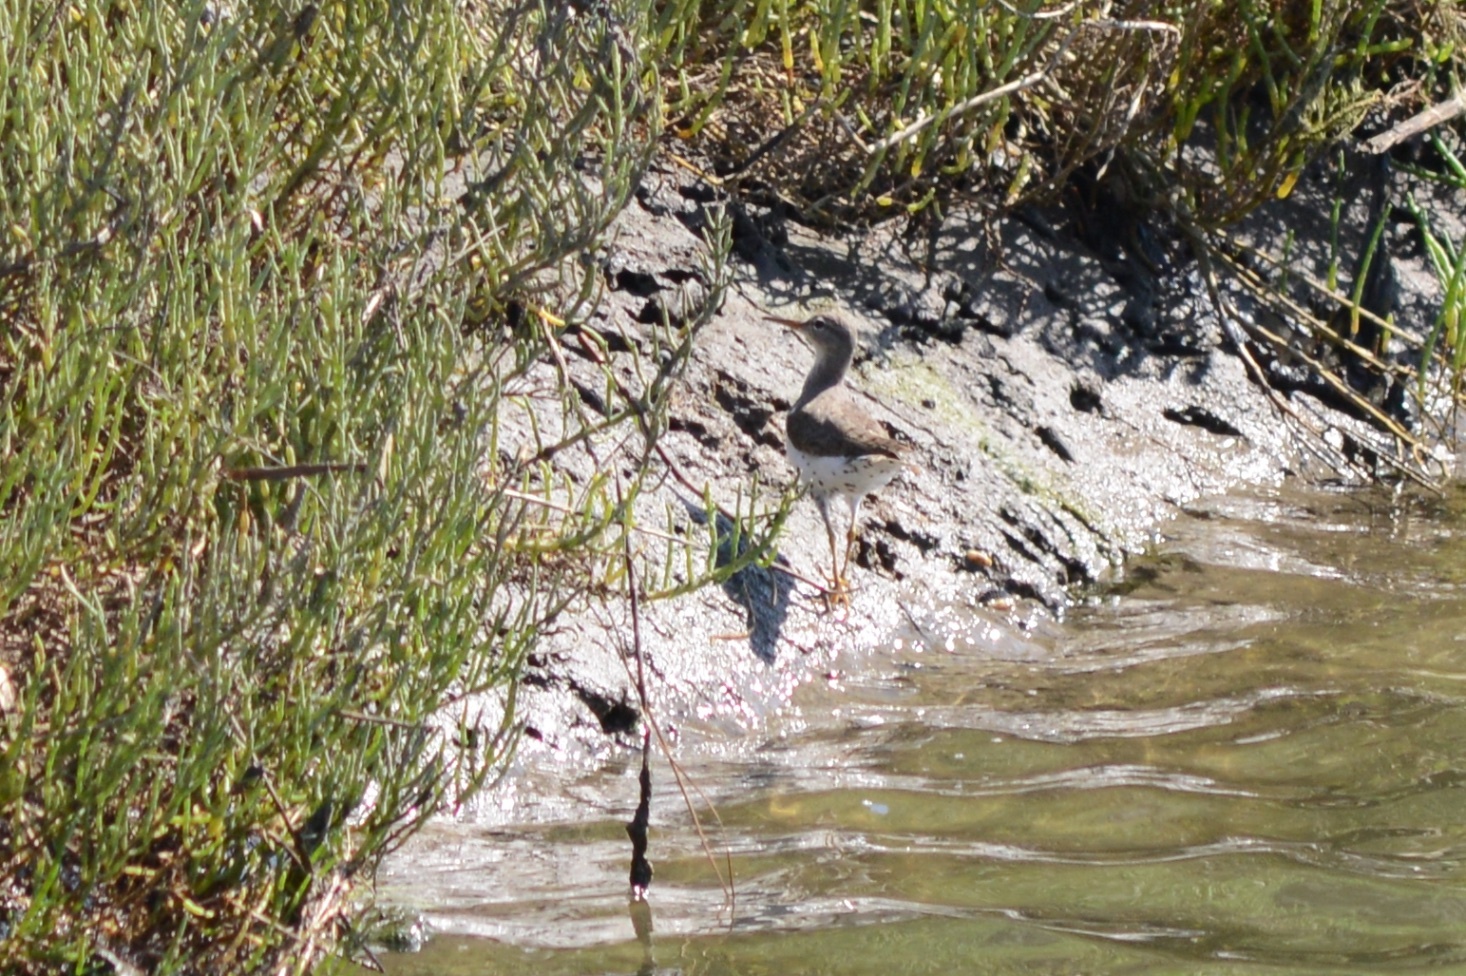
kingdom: Animalia
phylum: Chordata
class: Aves
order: Charadriiformes
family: Scolopacidae
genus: Actitis
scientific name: Actitis macularius
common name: Spotted sandpiper
